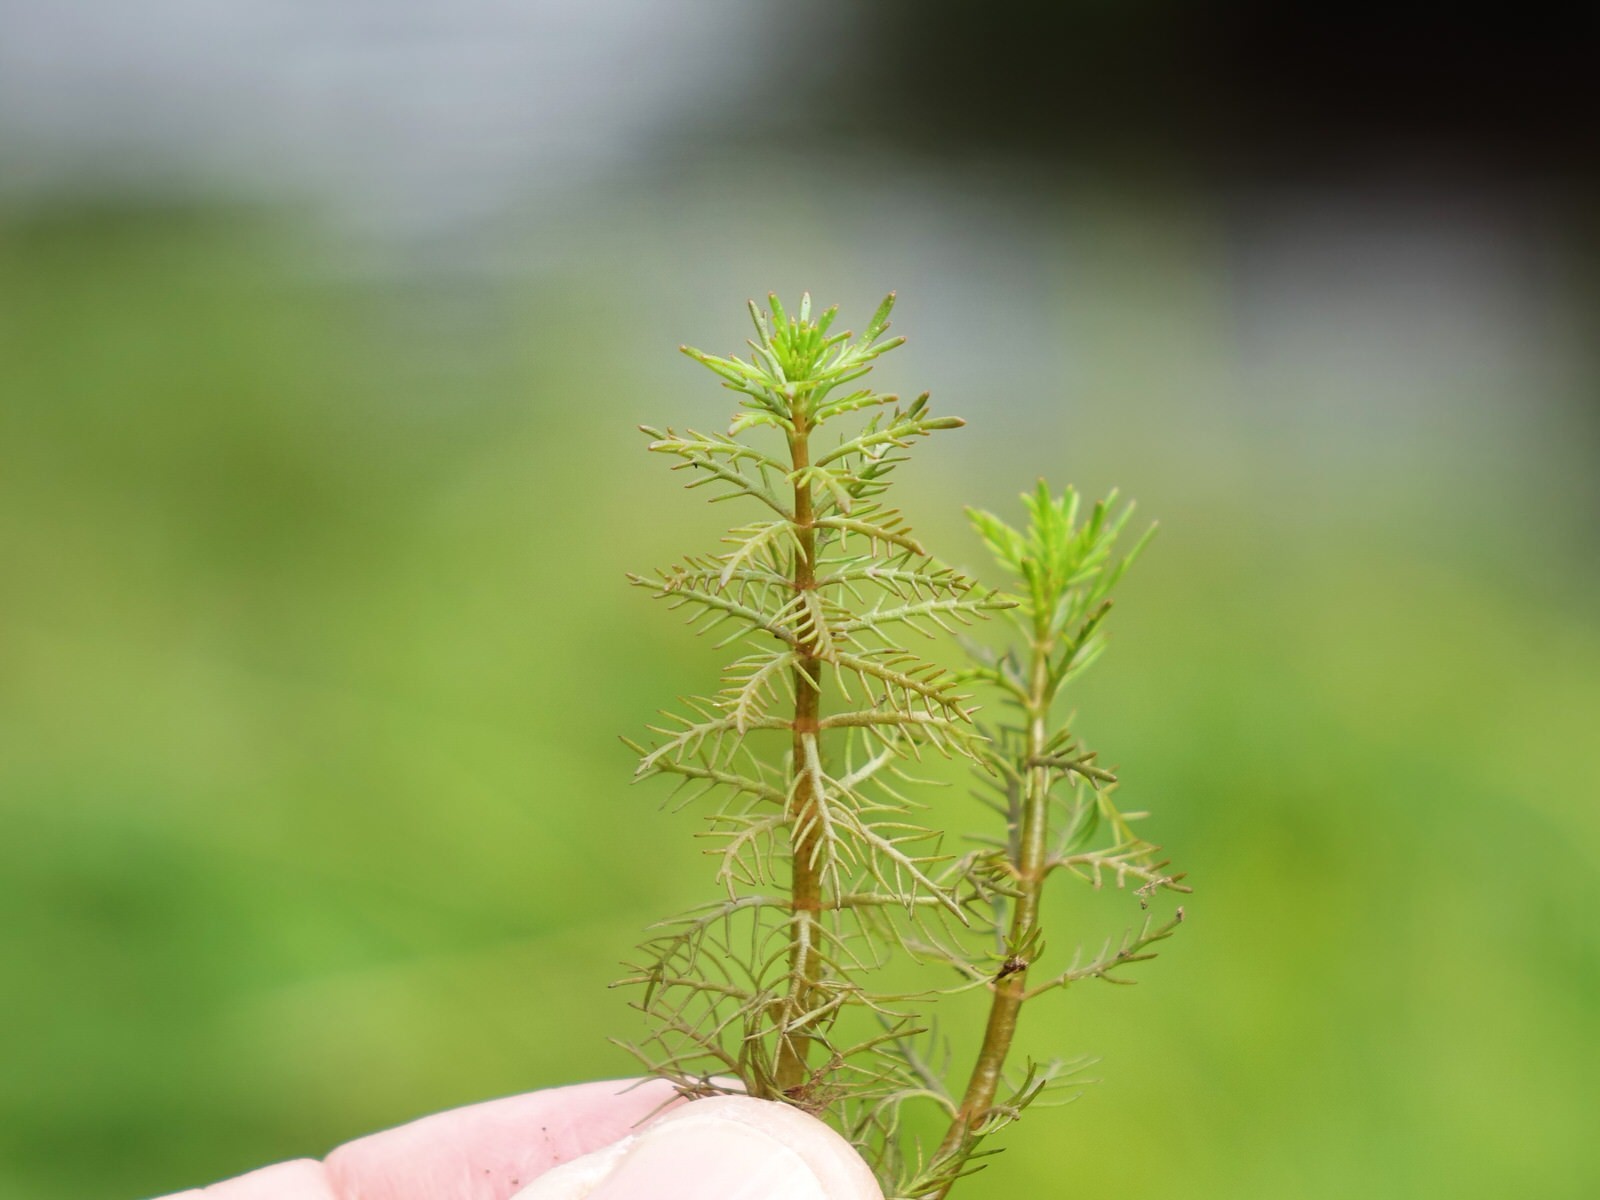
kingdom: Plantae
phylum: Tracheophyta
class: Magnoliopsida
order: Saxifragales
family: Haloragaceae
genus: Myriophyllum
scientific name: Myriophyllum propinquum
